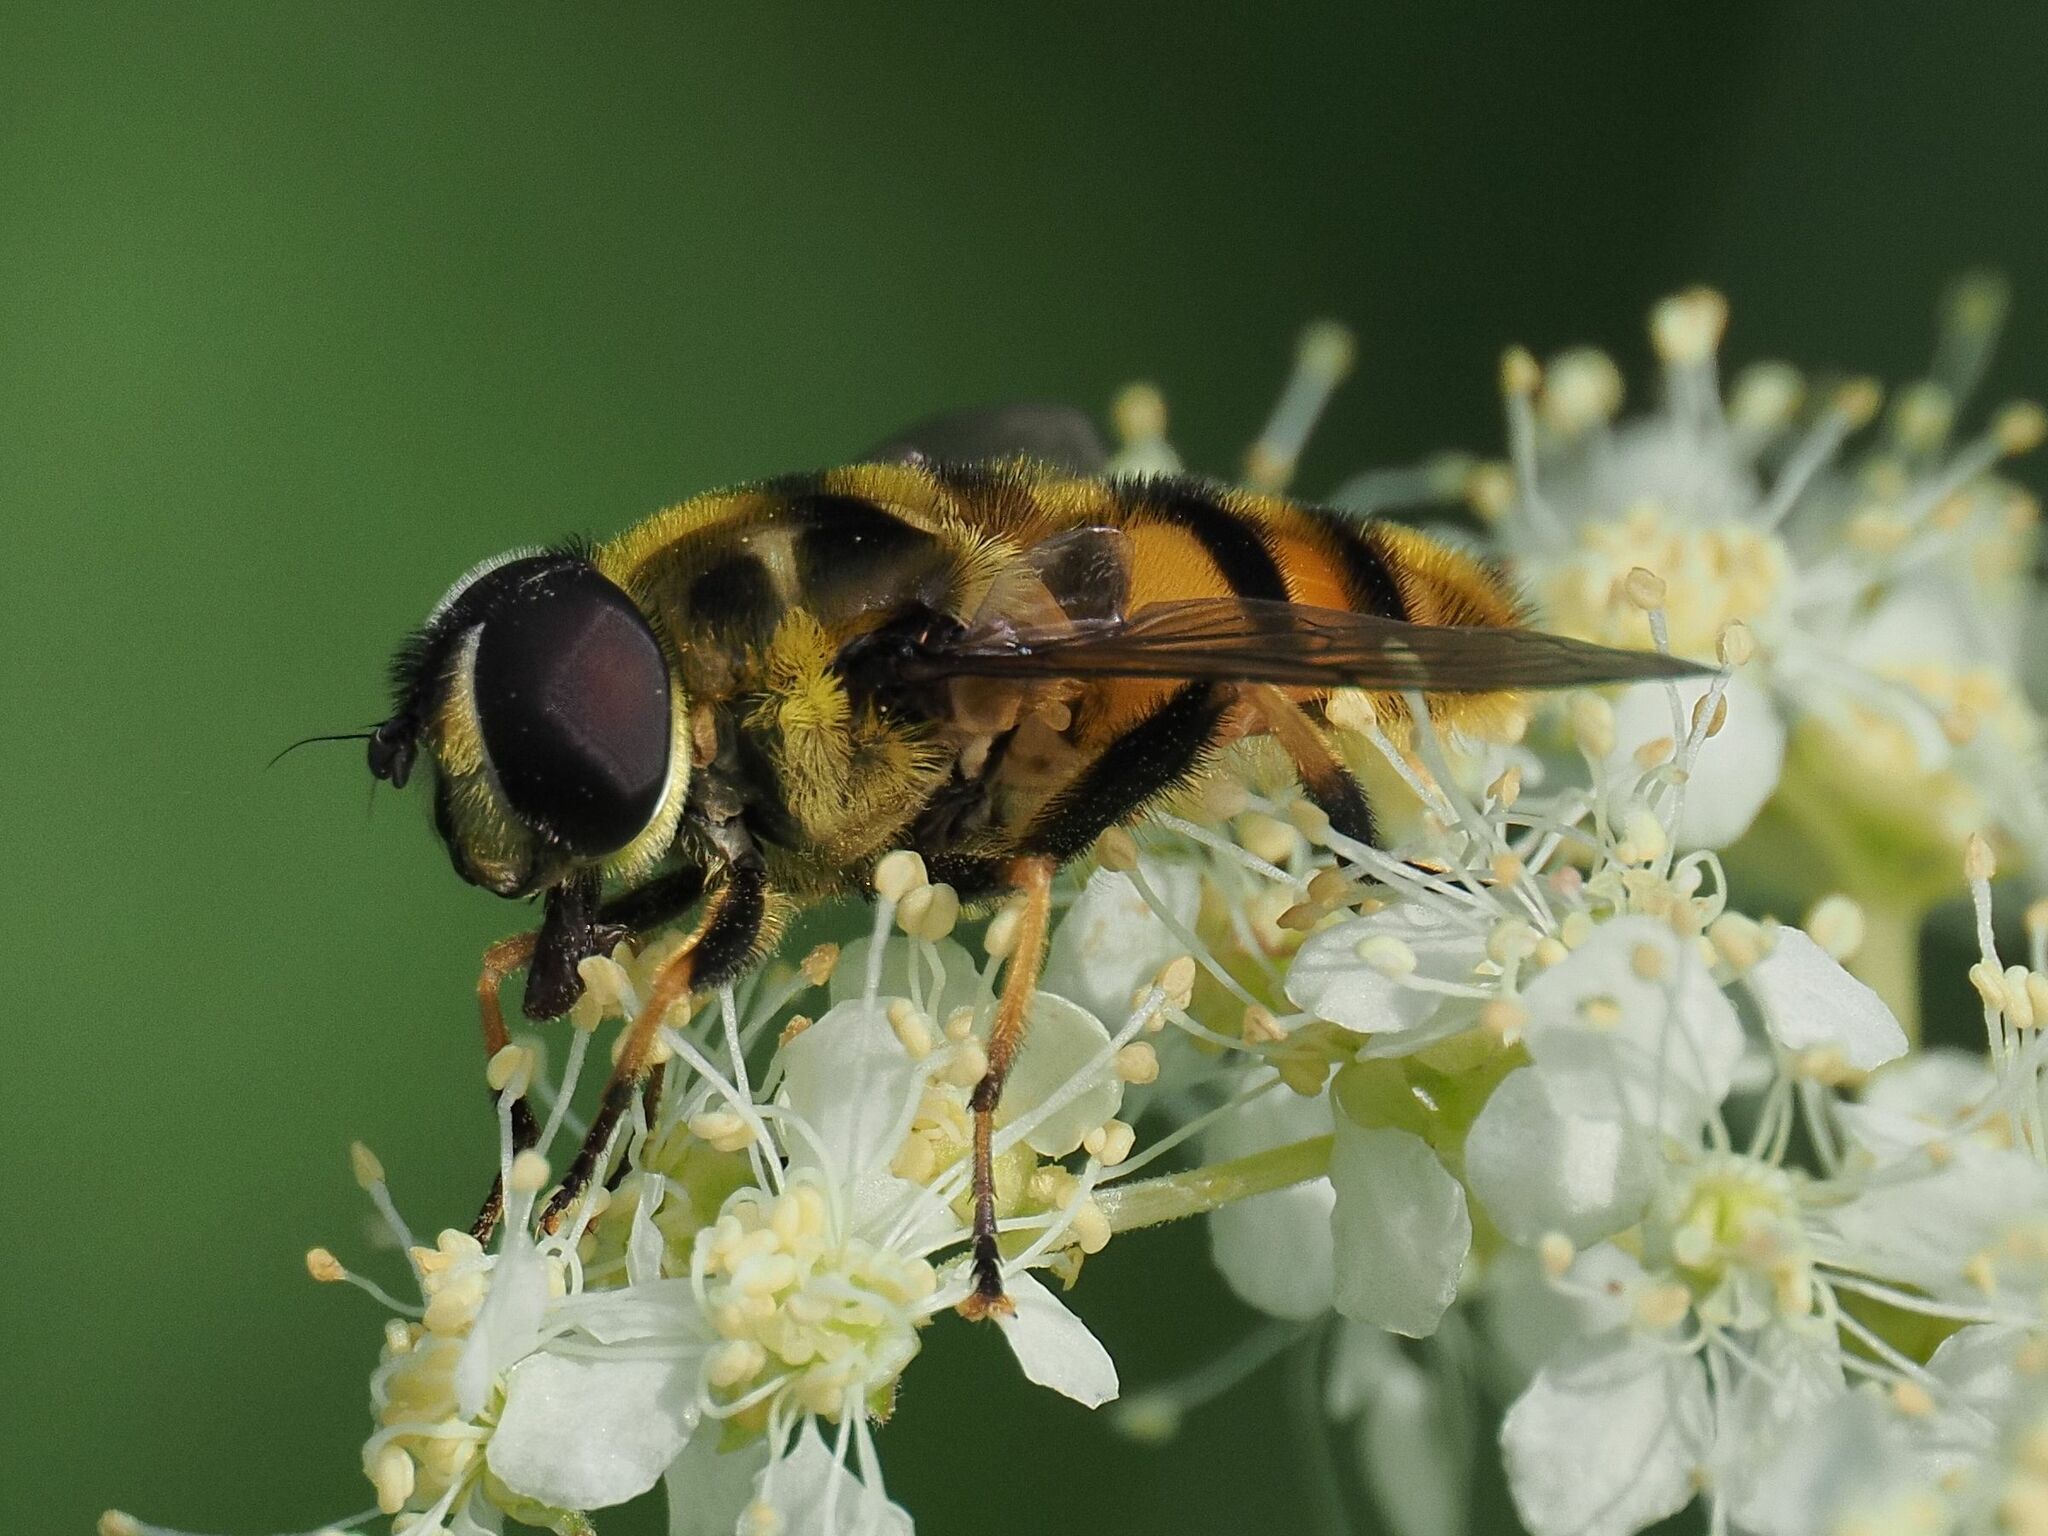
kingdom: Animalia
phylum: Arthropoda
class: Insecta
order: Diptera
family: Syrphidae
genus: Myathropa
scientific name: Myathropa florea
